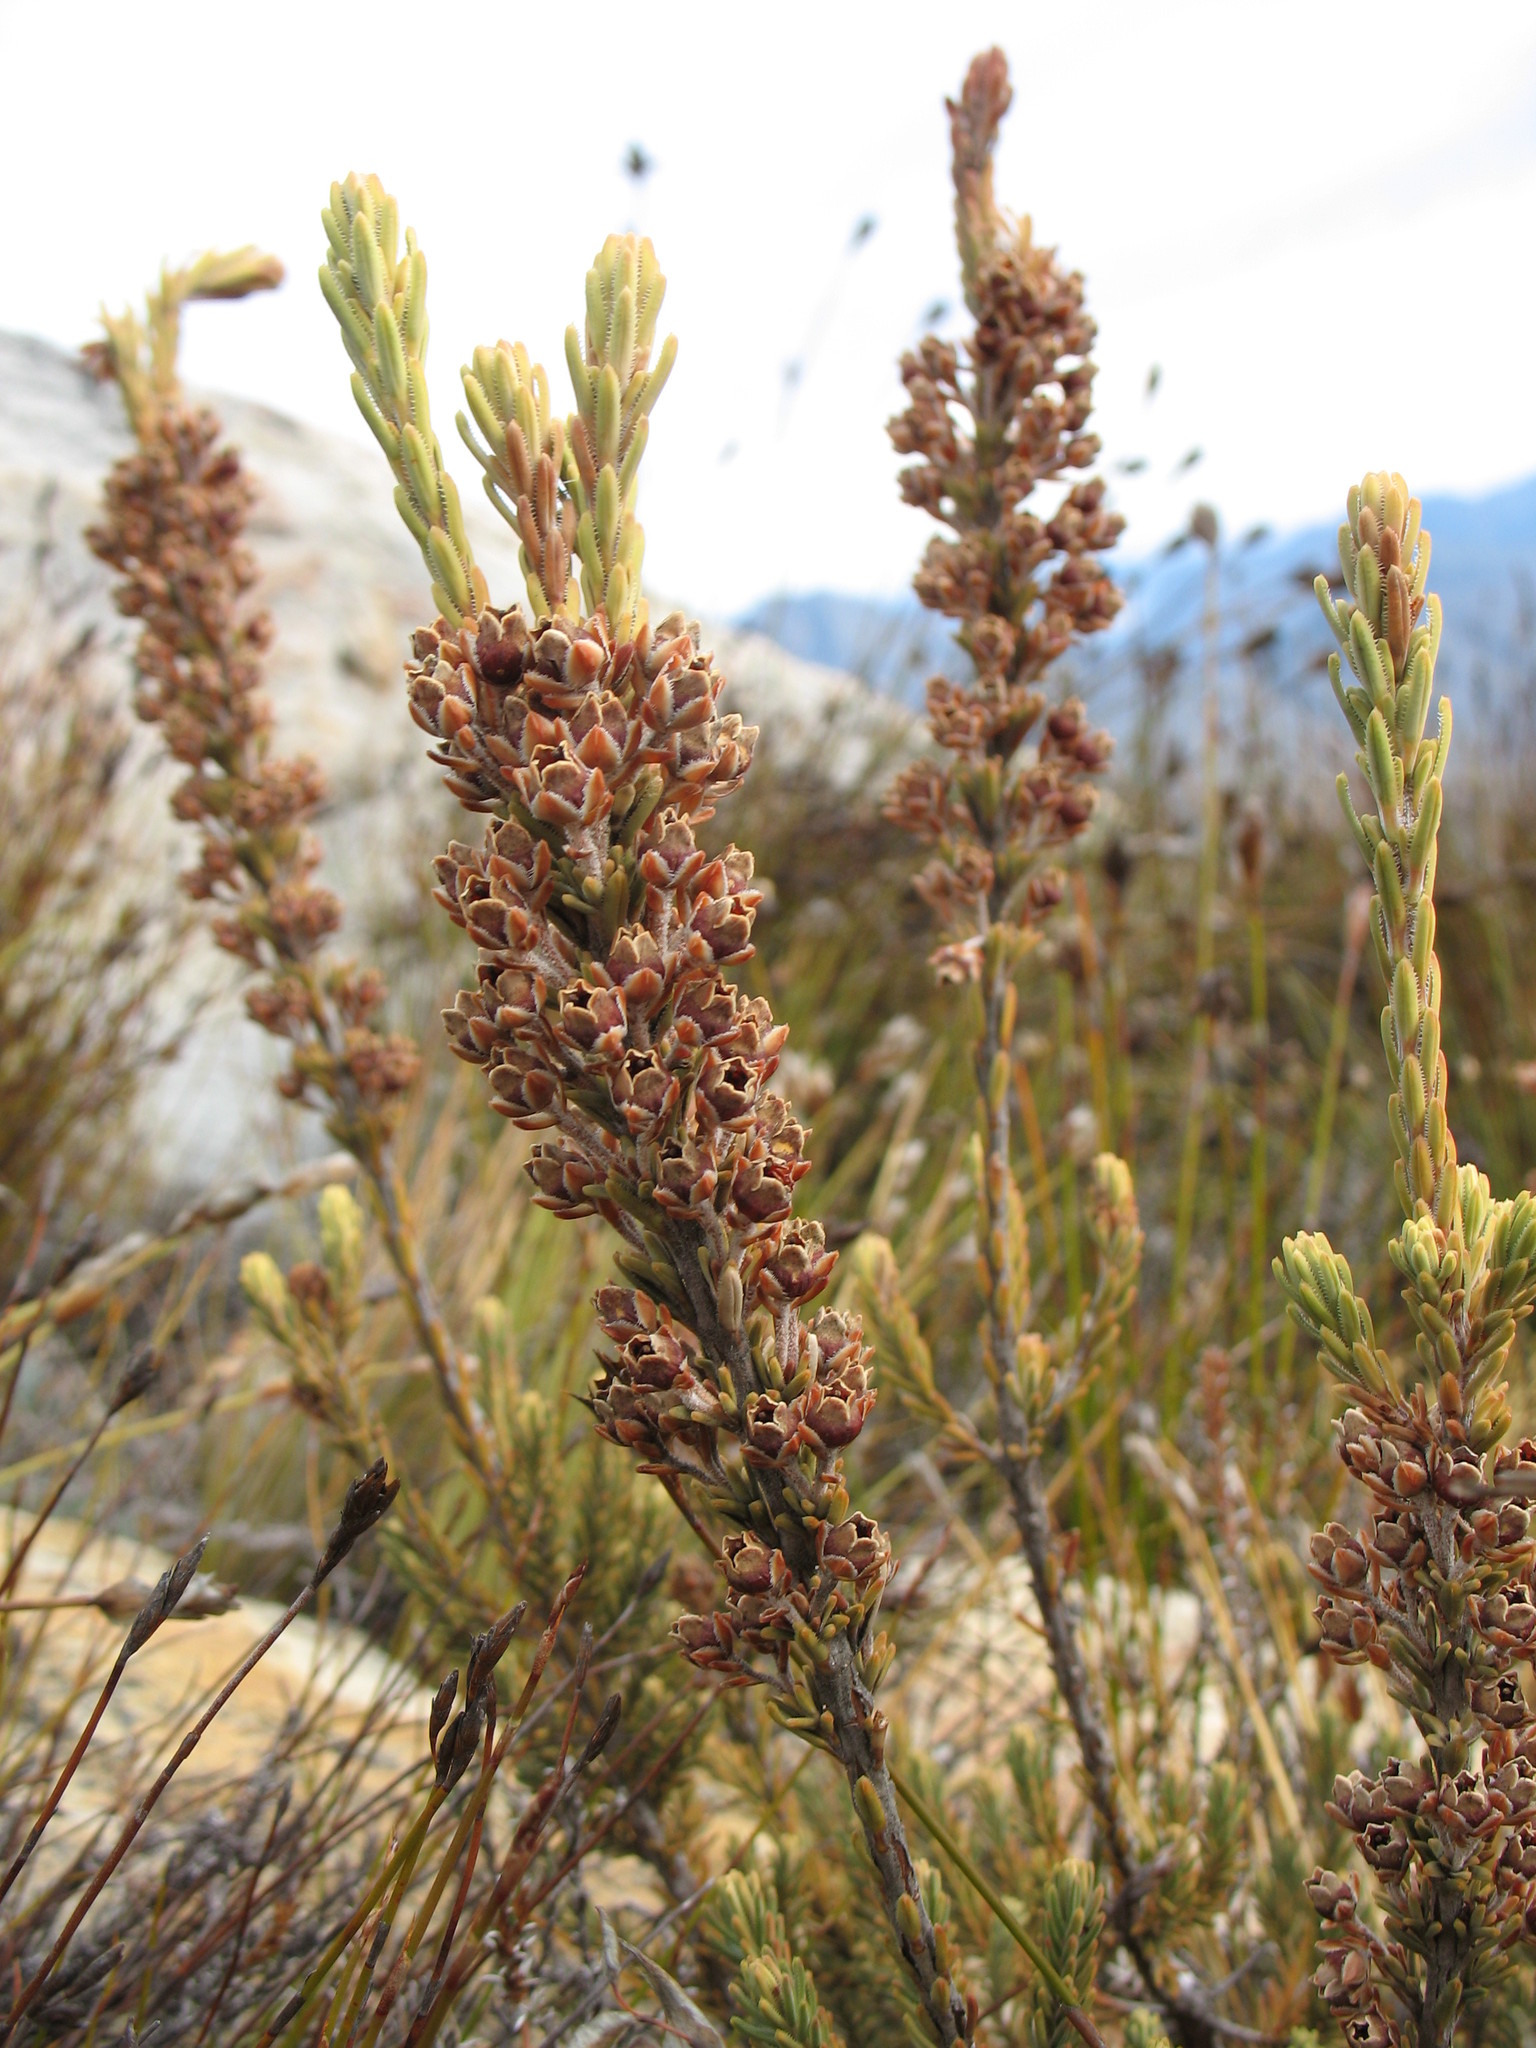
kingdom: Plantae
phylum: Tracheophyta
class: Magnoliopsida
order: Ericales
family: Ericaceae
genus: Erica
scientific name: Erica goatcheriana
